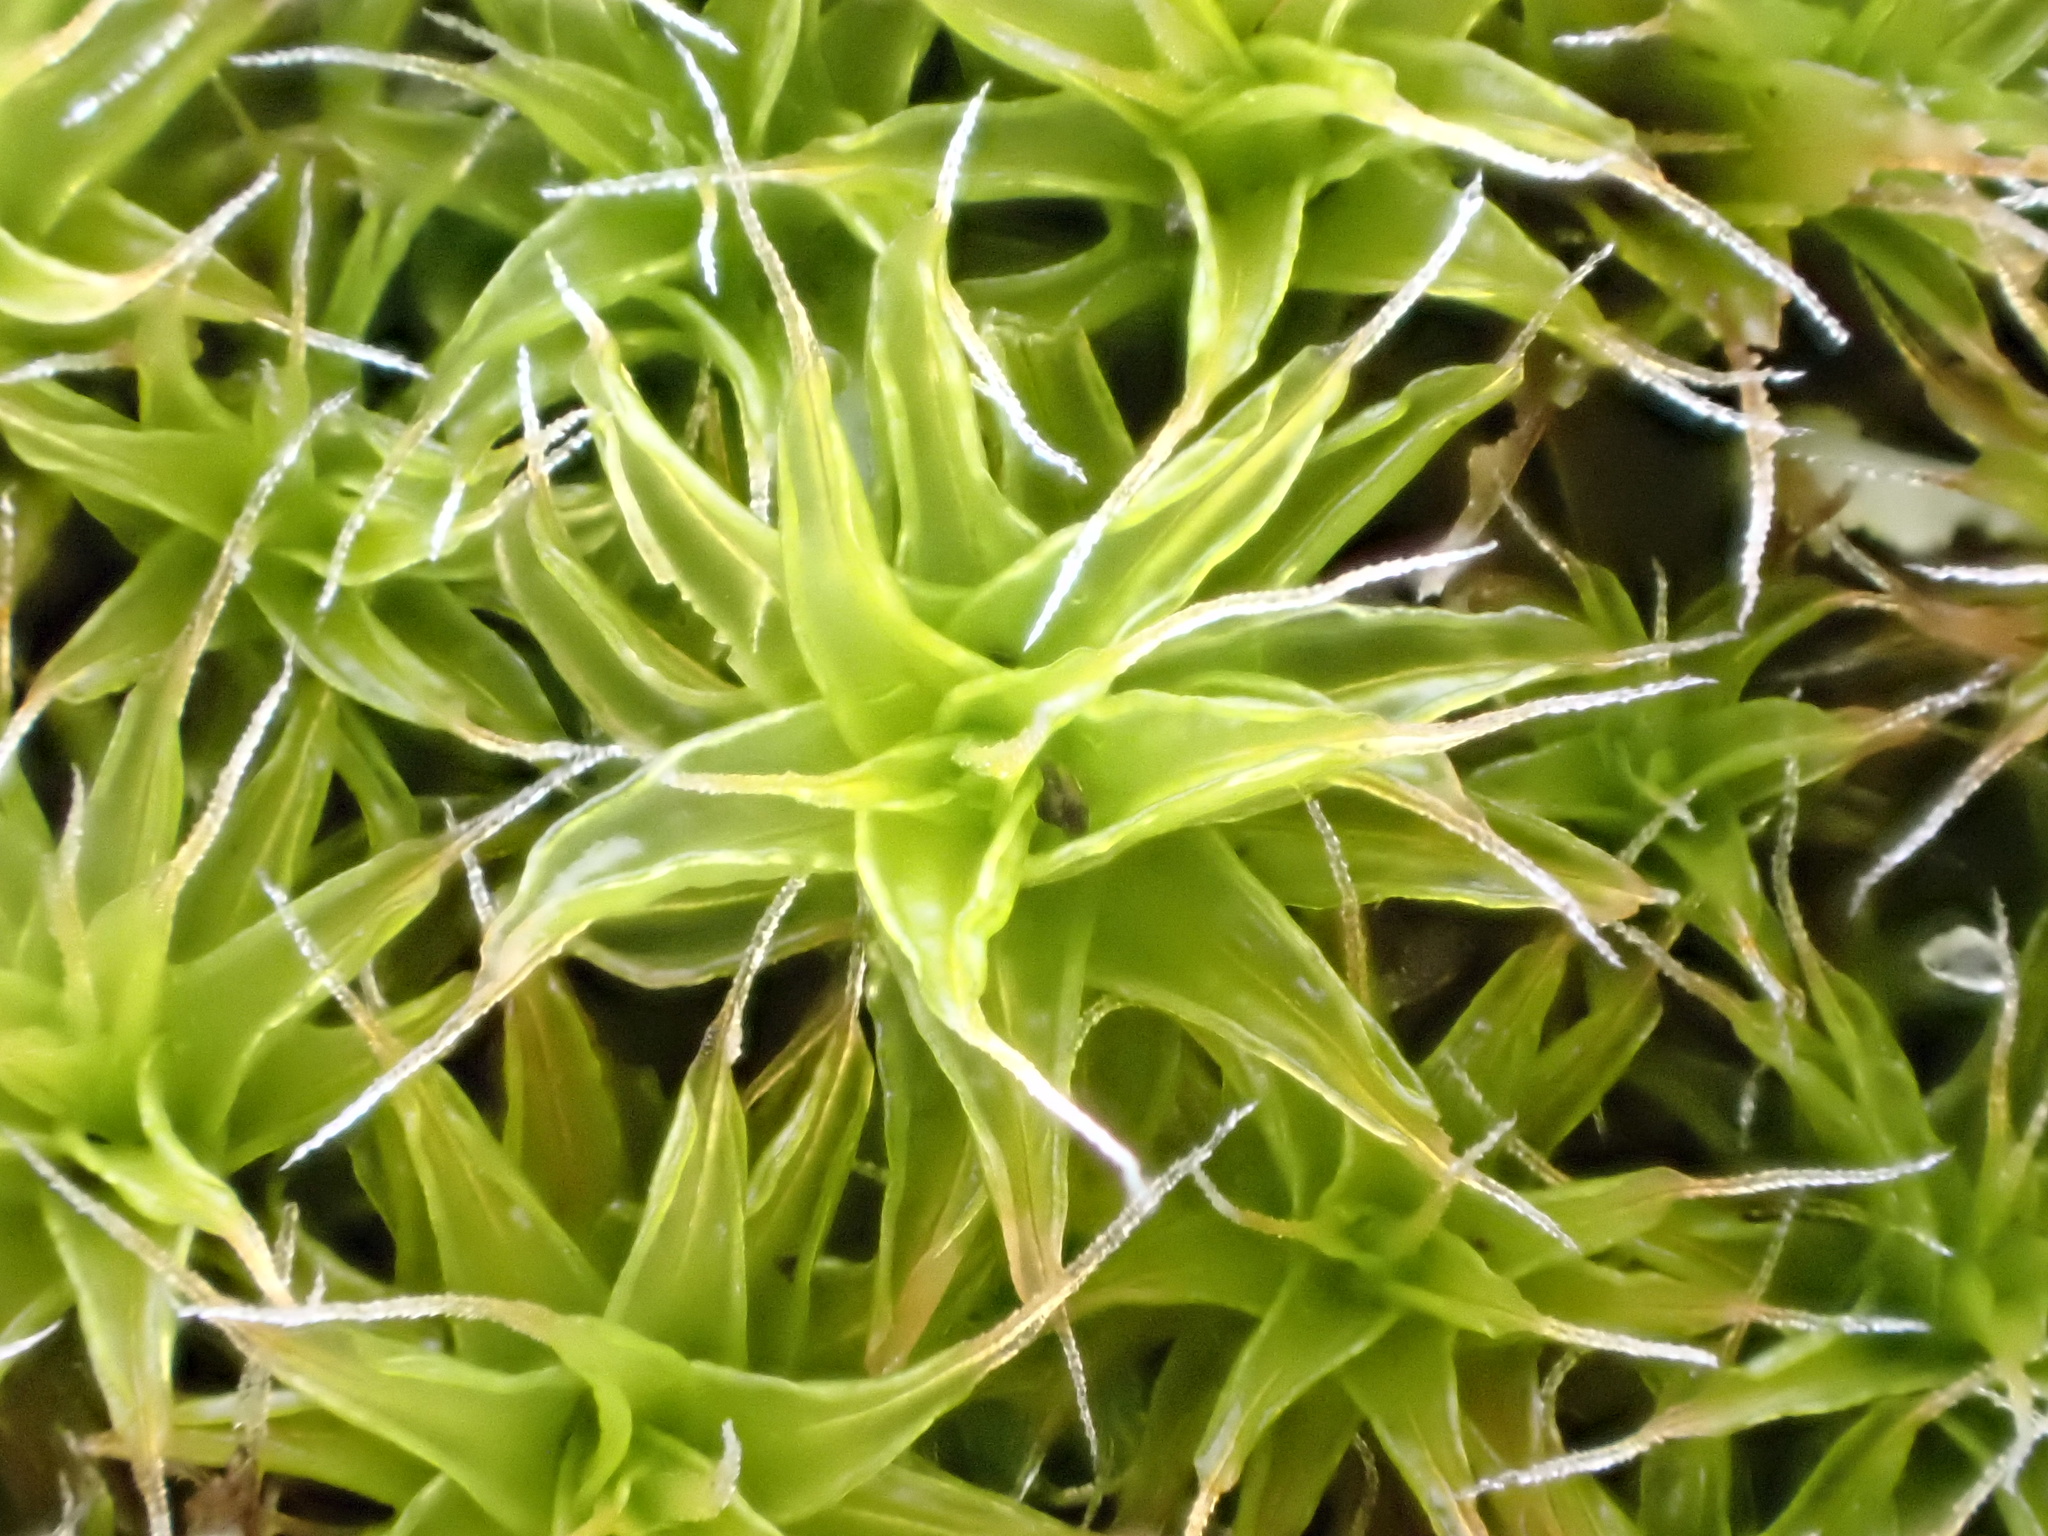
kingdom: Plantae
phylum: Bryophyta
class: Bryopsida
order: Pottiales
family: Pottiaceae
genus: Syntrichia
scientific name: Syntrichia ruralis
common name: Sidewalk screw moss
